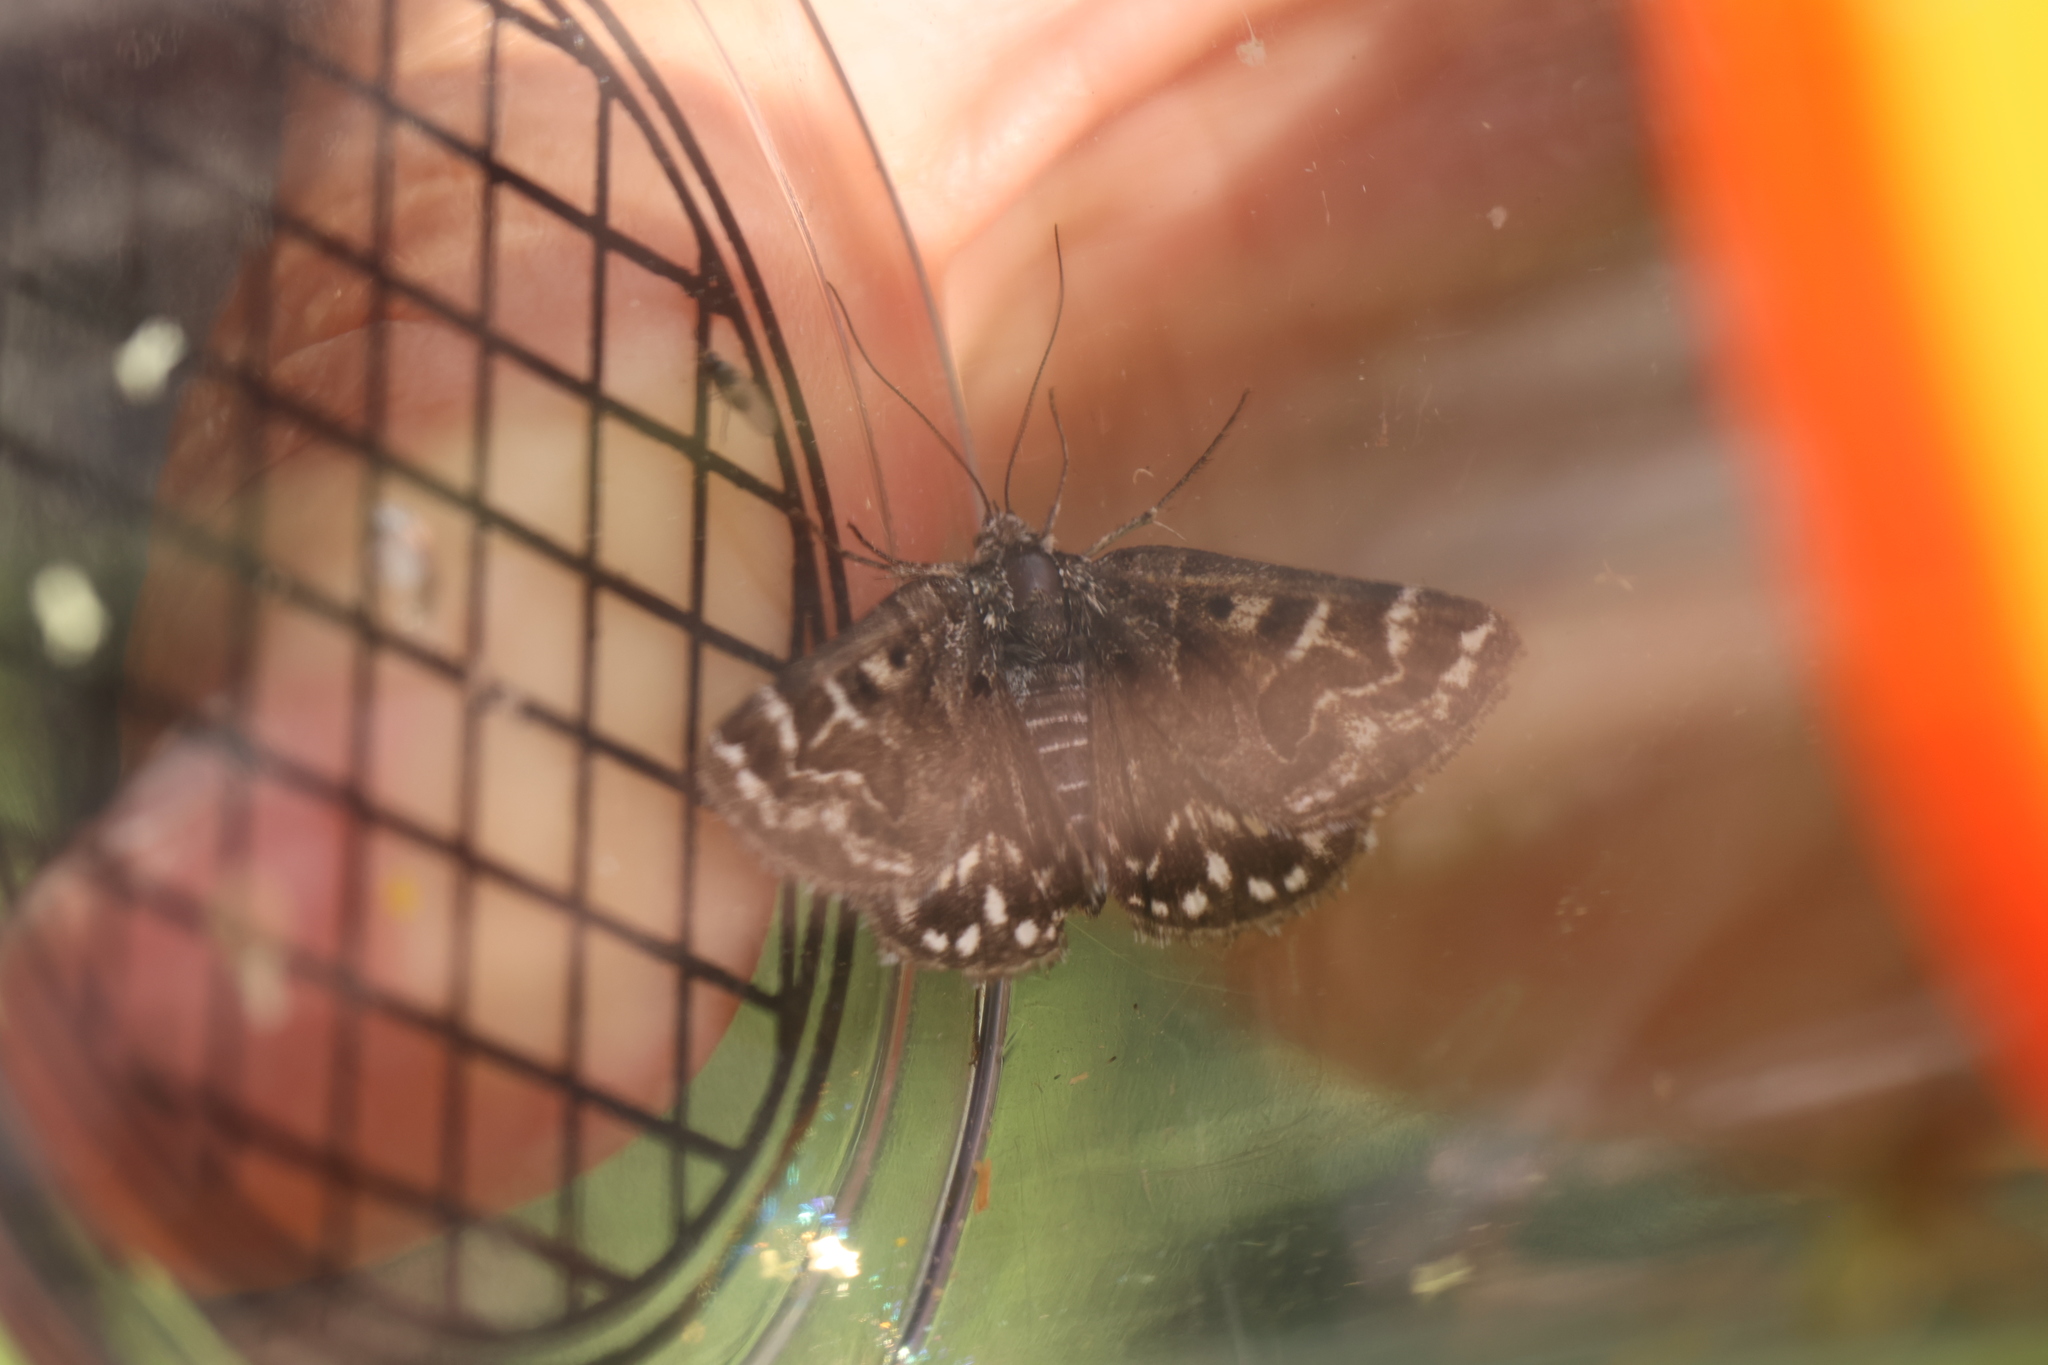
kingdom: Animalia
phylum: Arthropoda
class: Insecta
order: Lepidoptera
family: Erebidae
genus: Callistege
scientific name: Callistege mi
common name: Mother shipton
